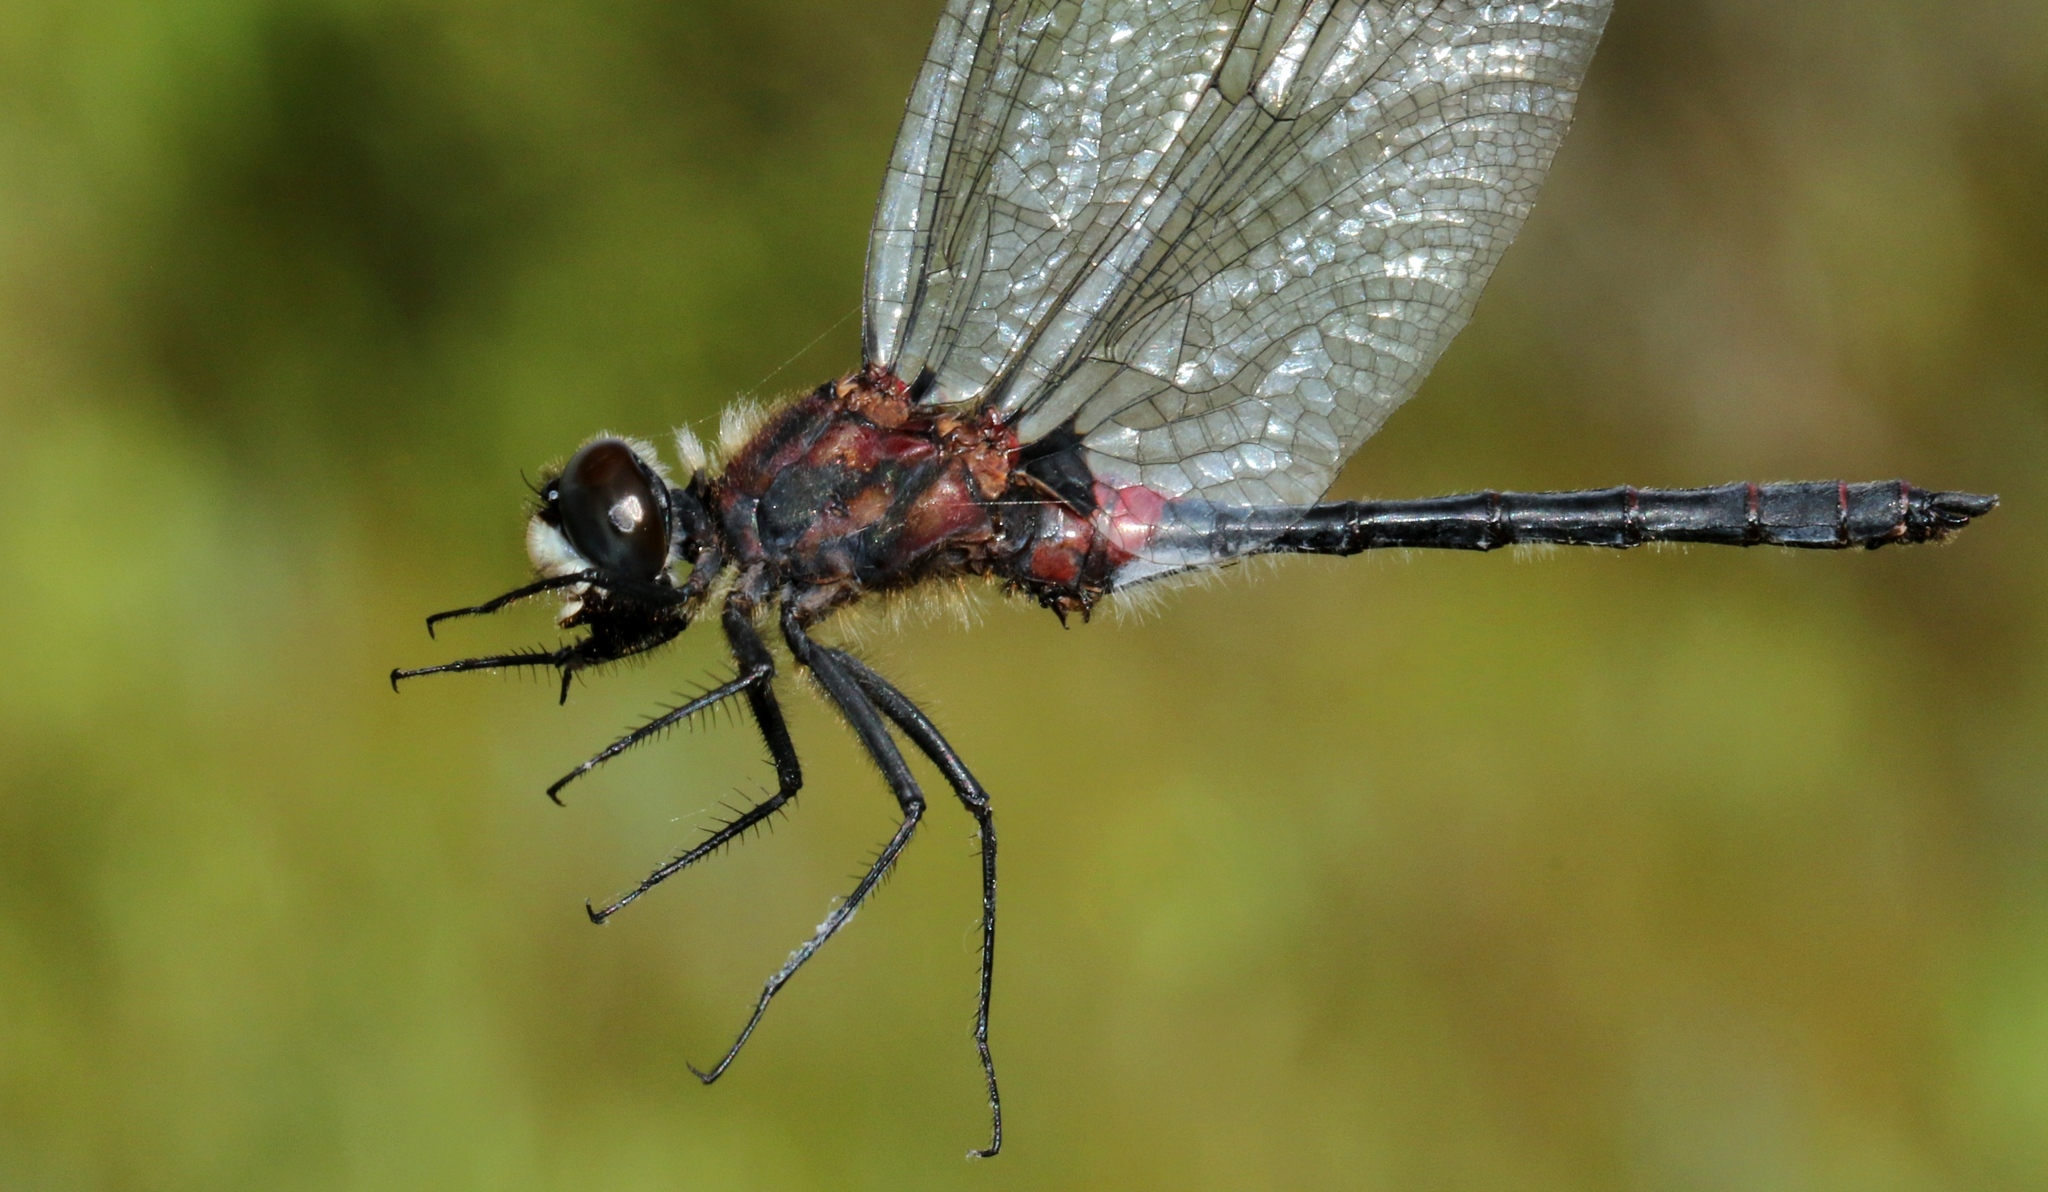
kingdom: Animalia
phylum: Arthropoda
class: Insecta
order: Odonata
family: Libellulidae
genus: Leucorrhinia
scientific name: Leucorrhinia glacialis
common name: Crimson-ringed whiteface
